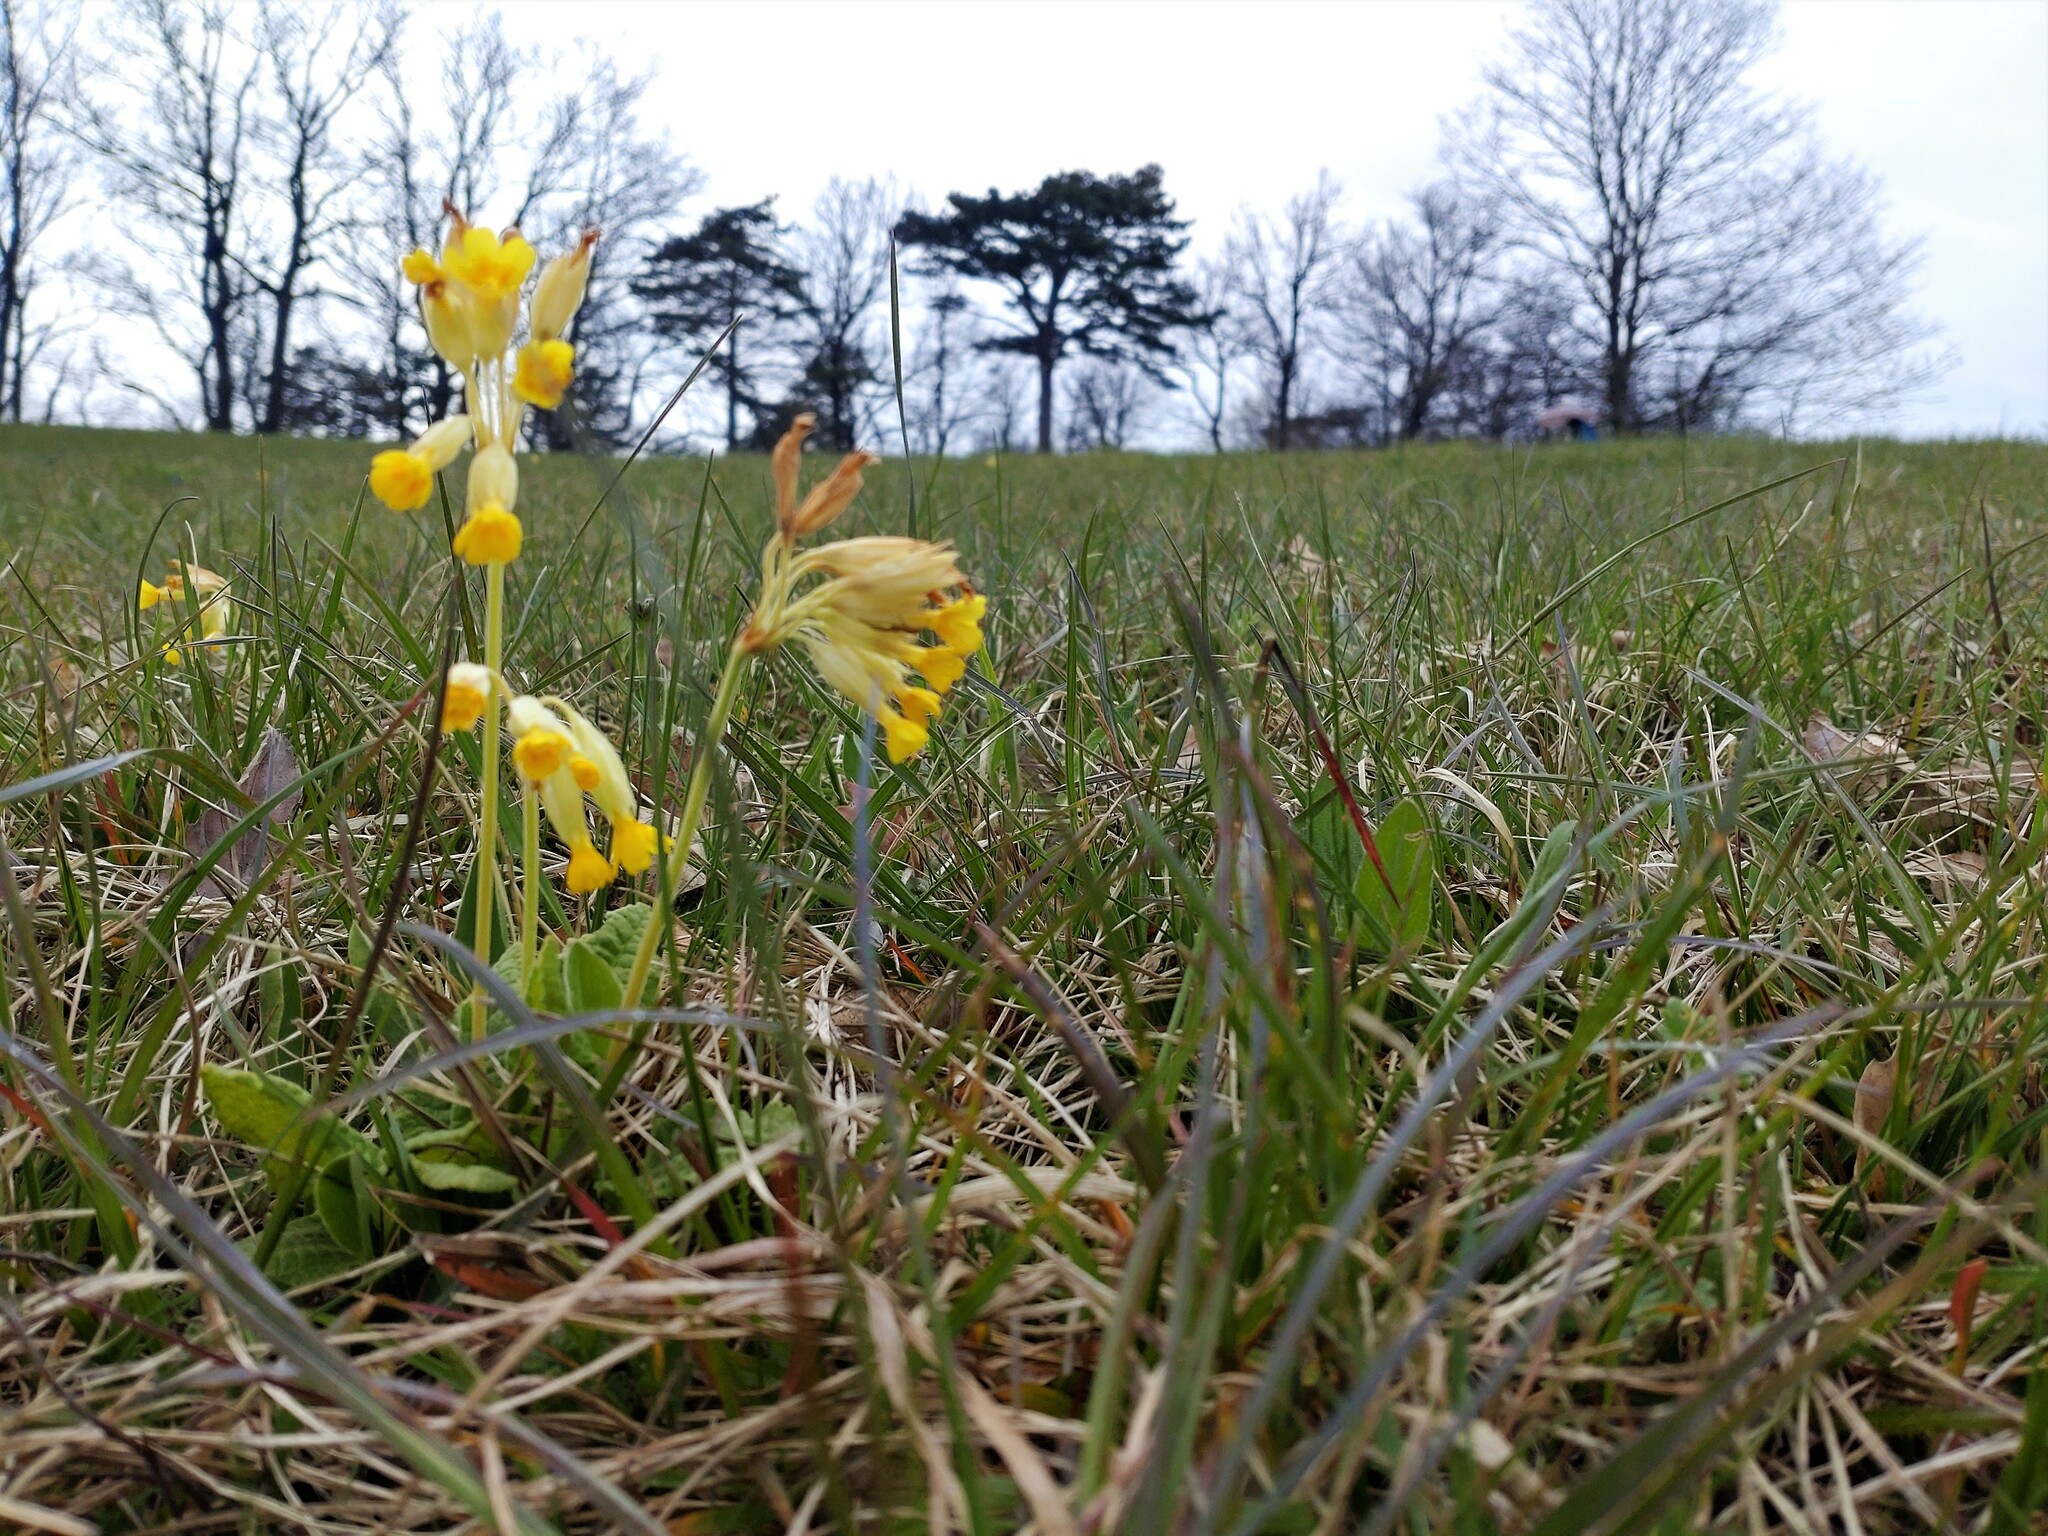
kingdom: Plantae
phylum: Tracheophyta
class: Magnoliopsida
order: Ericales
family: Primulaceae
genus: Primula
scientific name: Primula veris
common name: Cowslip
